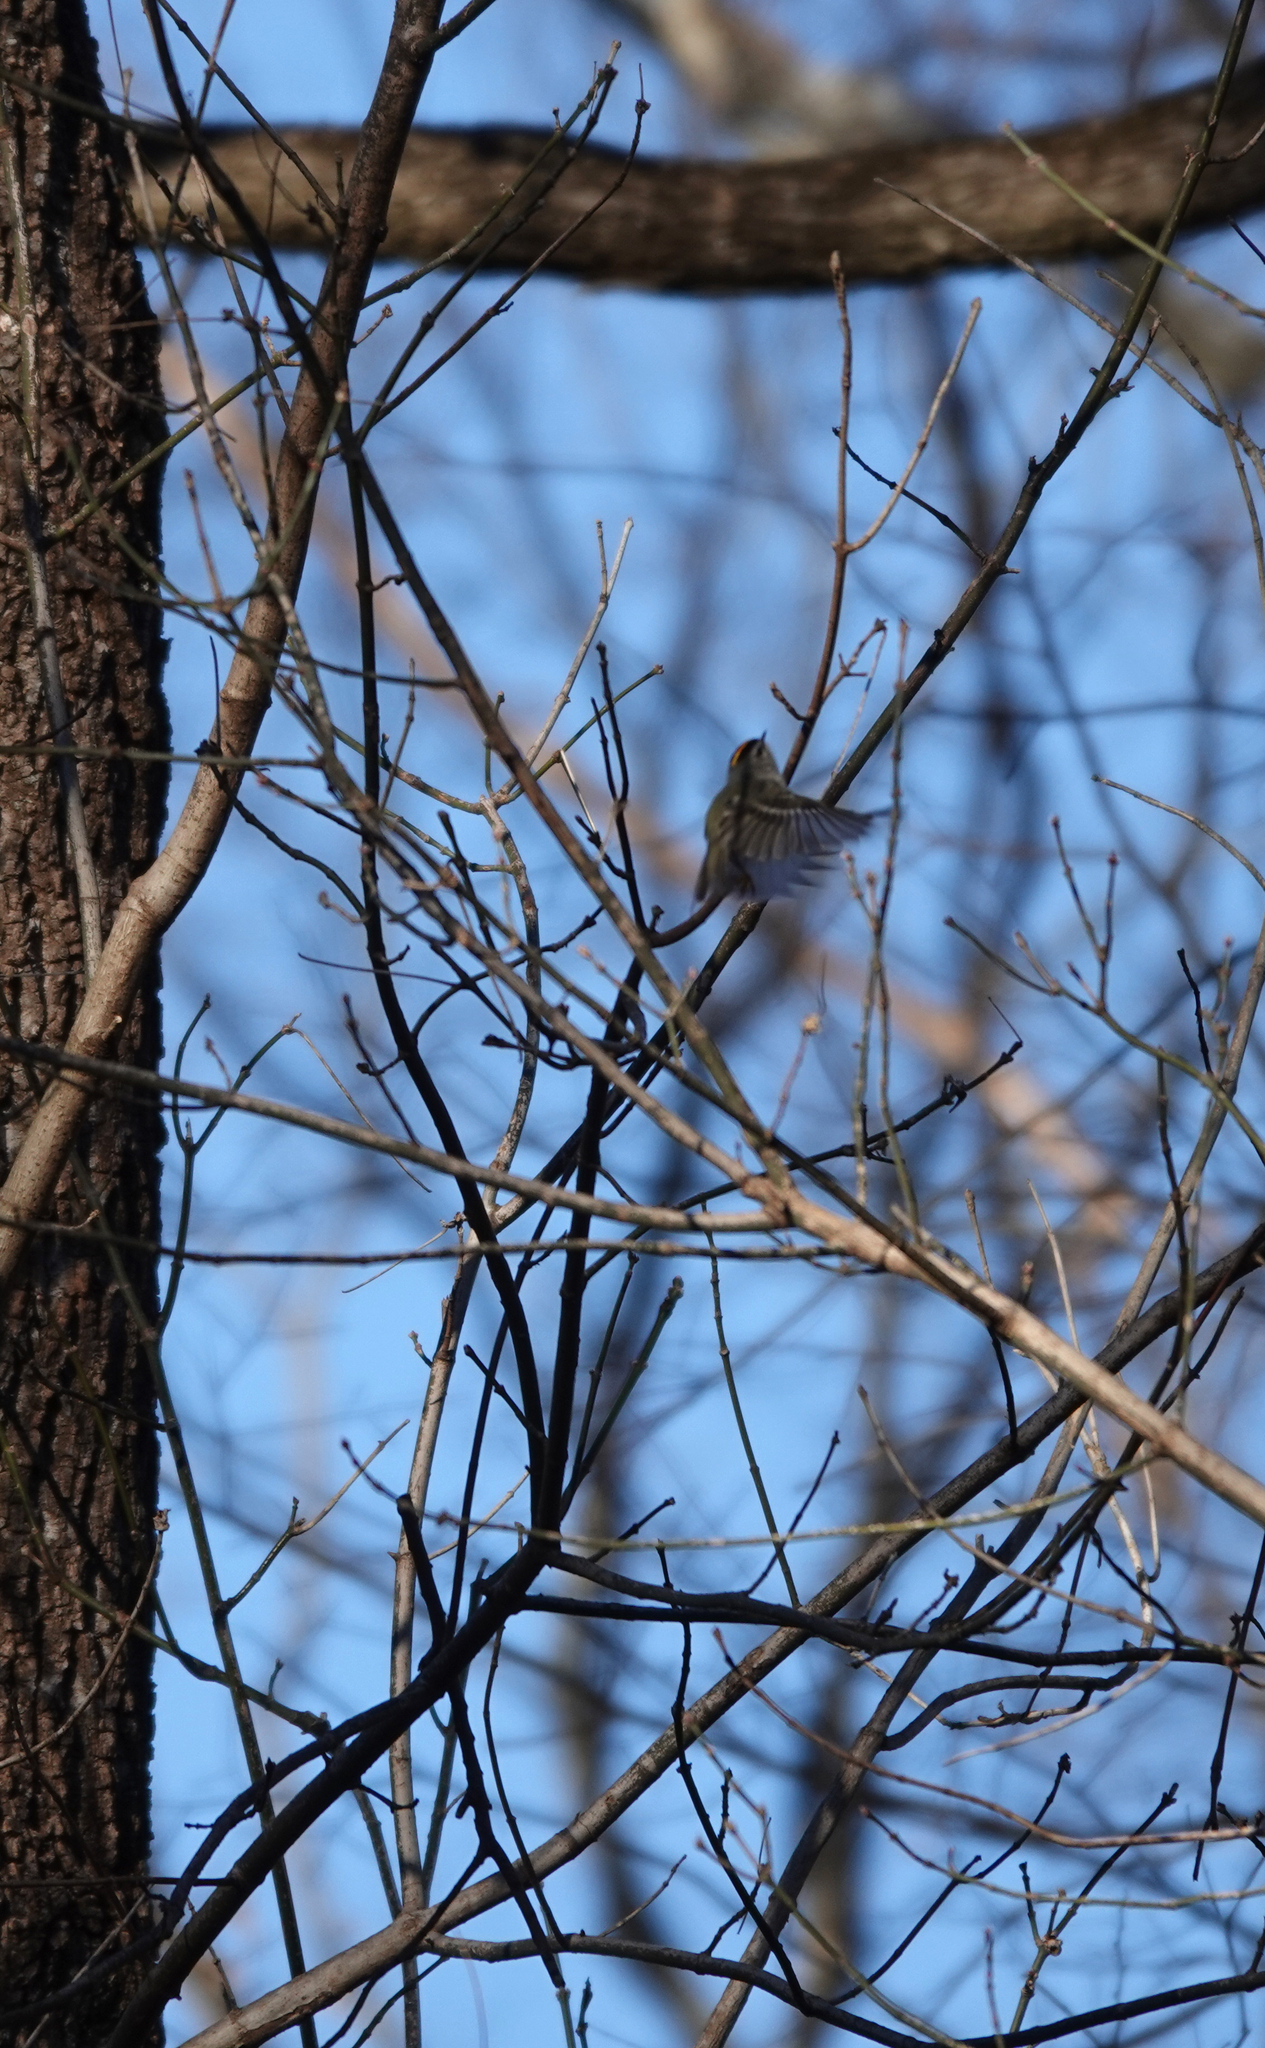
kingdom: Animalia
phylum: Chordata
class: Aves
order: Passeriformes
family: Regulidae
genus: Regulus
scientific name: Regulus satrapa
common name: Golden-crowned kinglet
